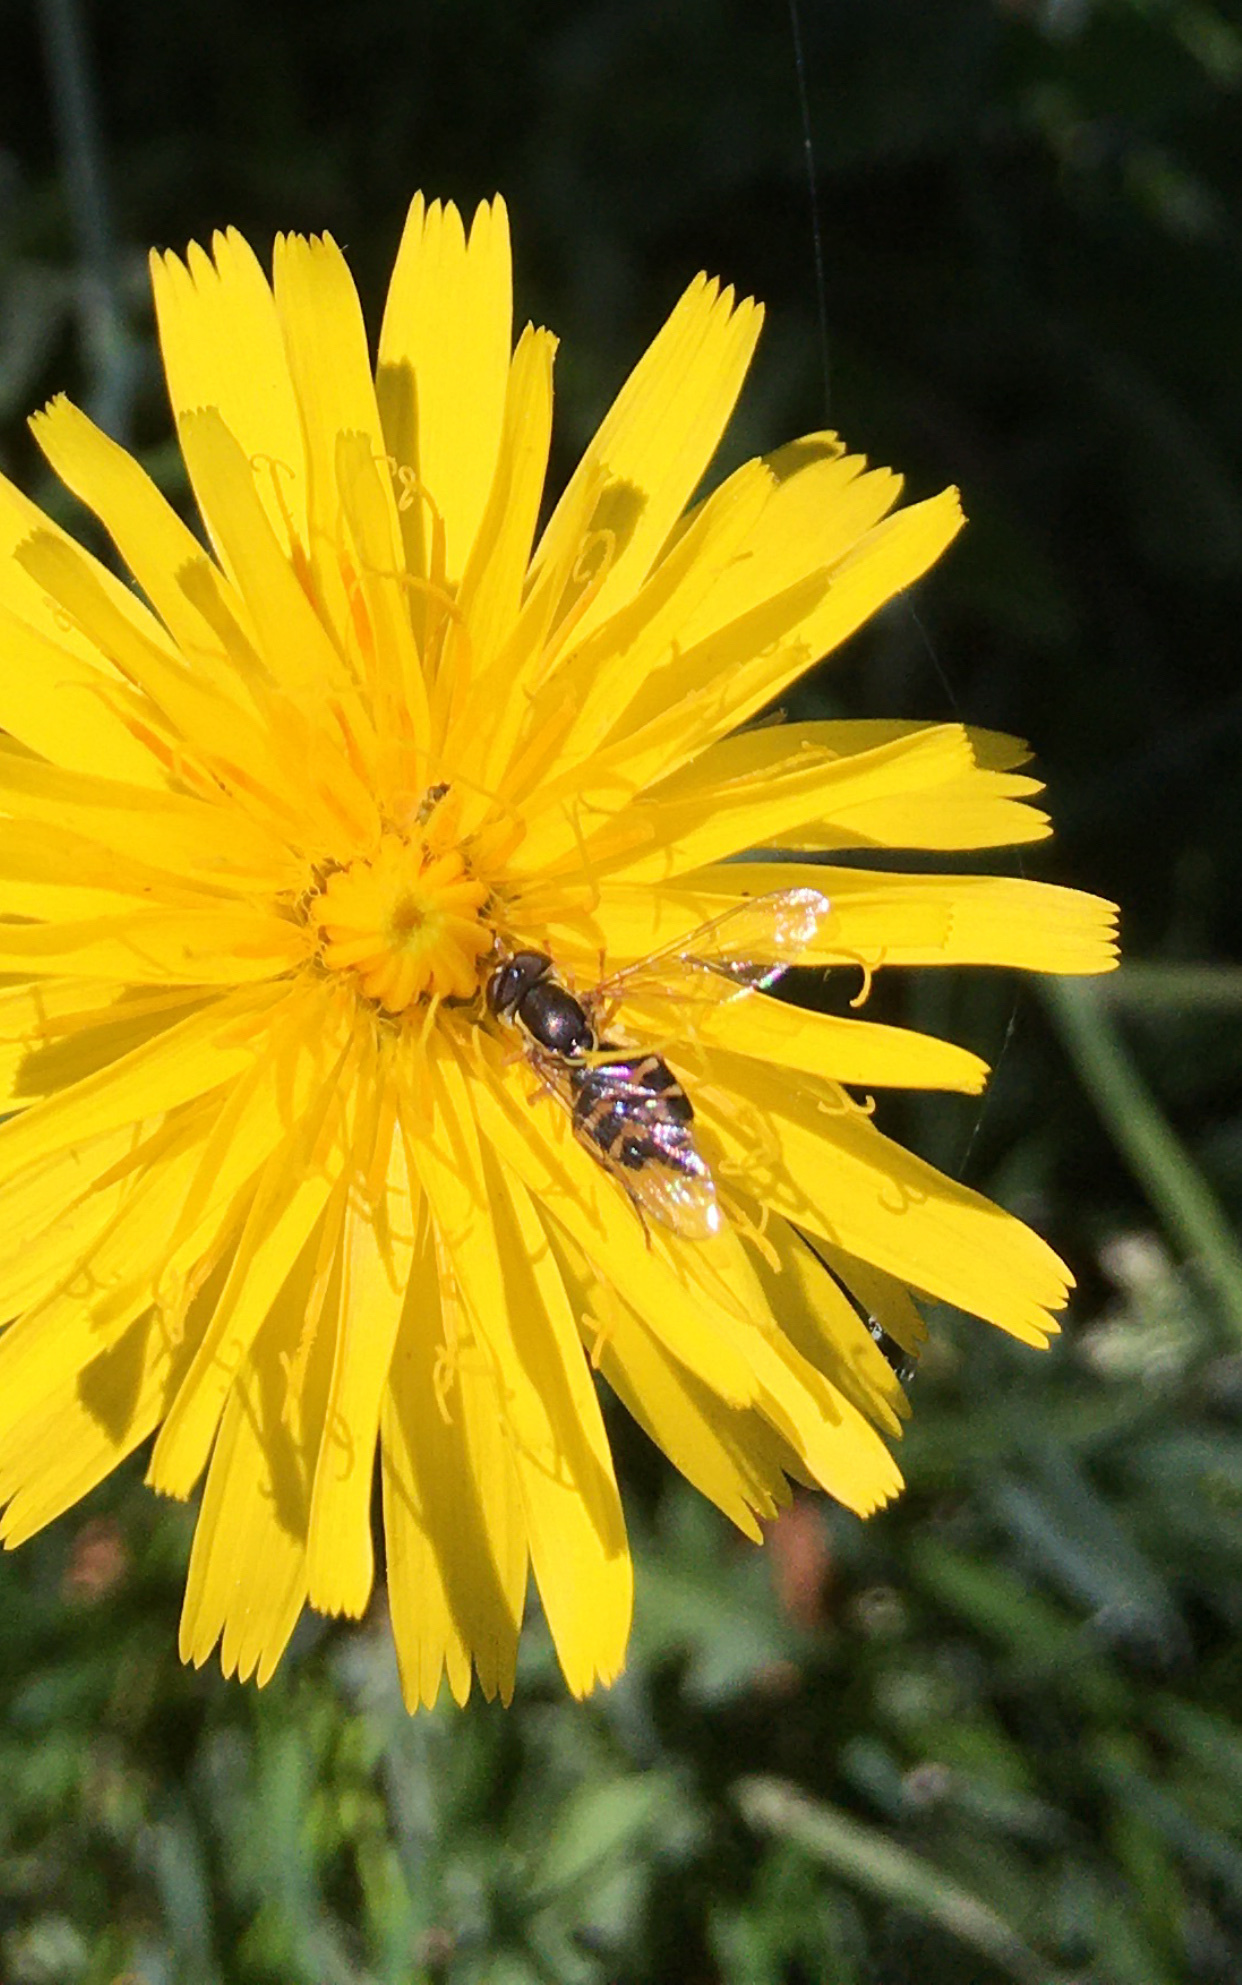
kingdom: Animalia
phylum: Arthropoda
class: Insecta
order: Diptera
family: Syrphidae
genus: Toxomerus
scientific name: Toxomerus occidentalis
